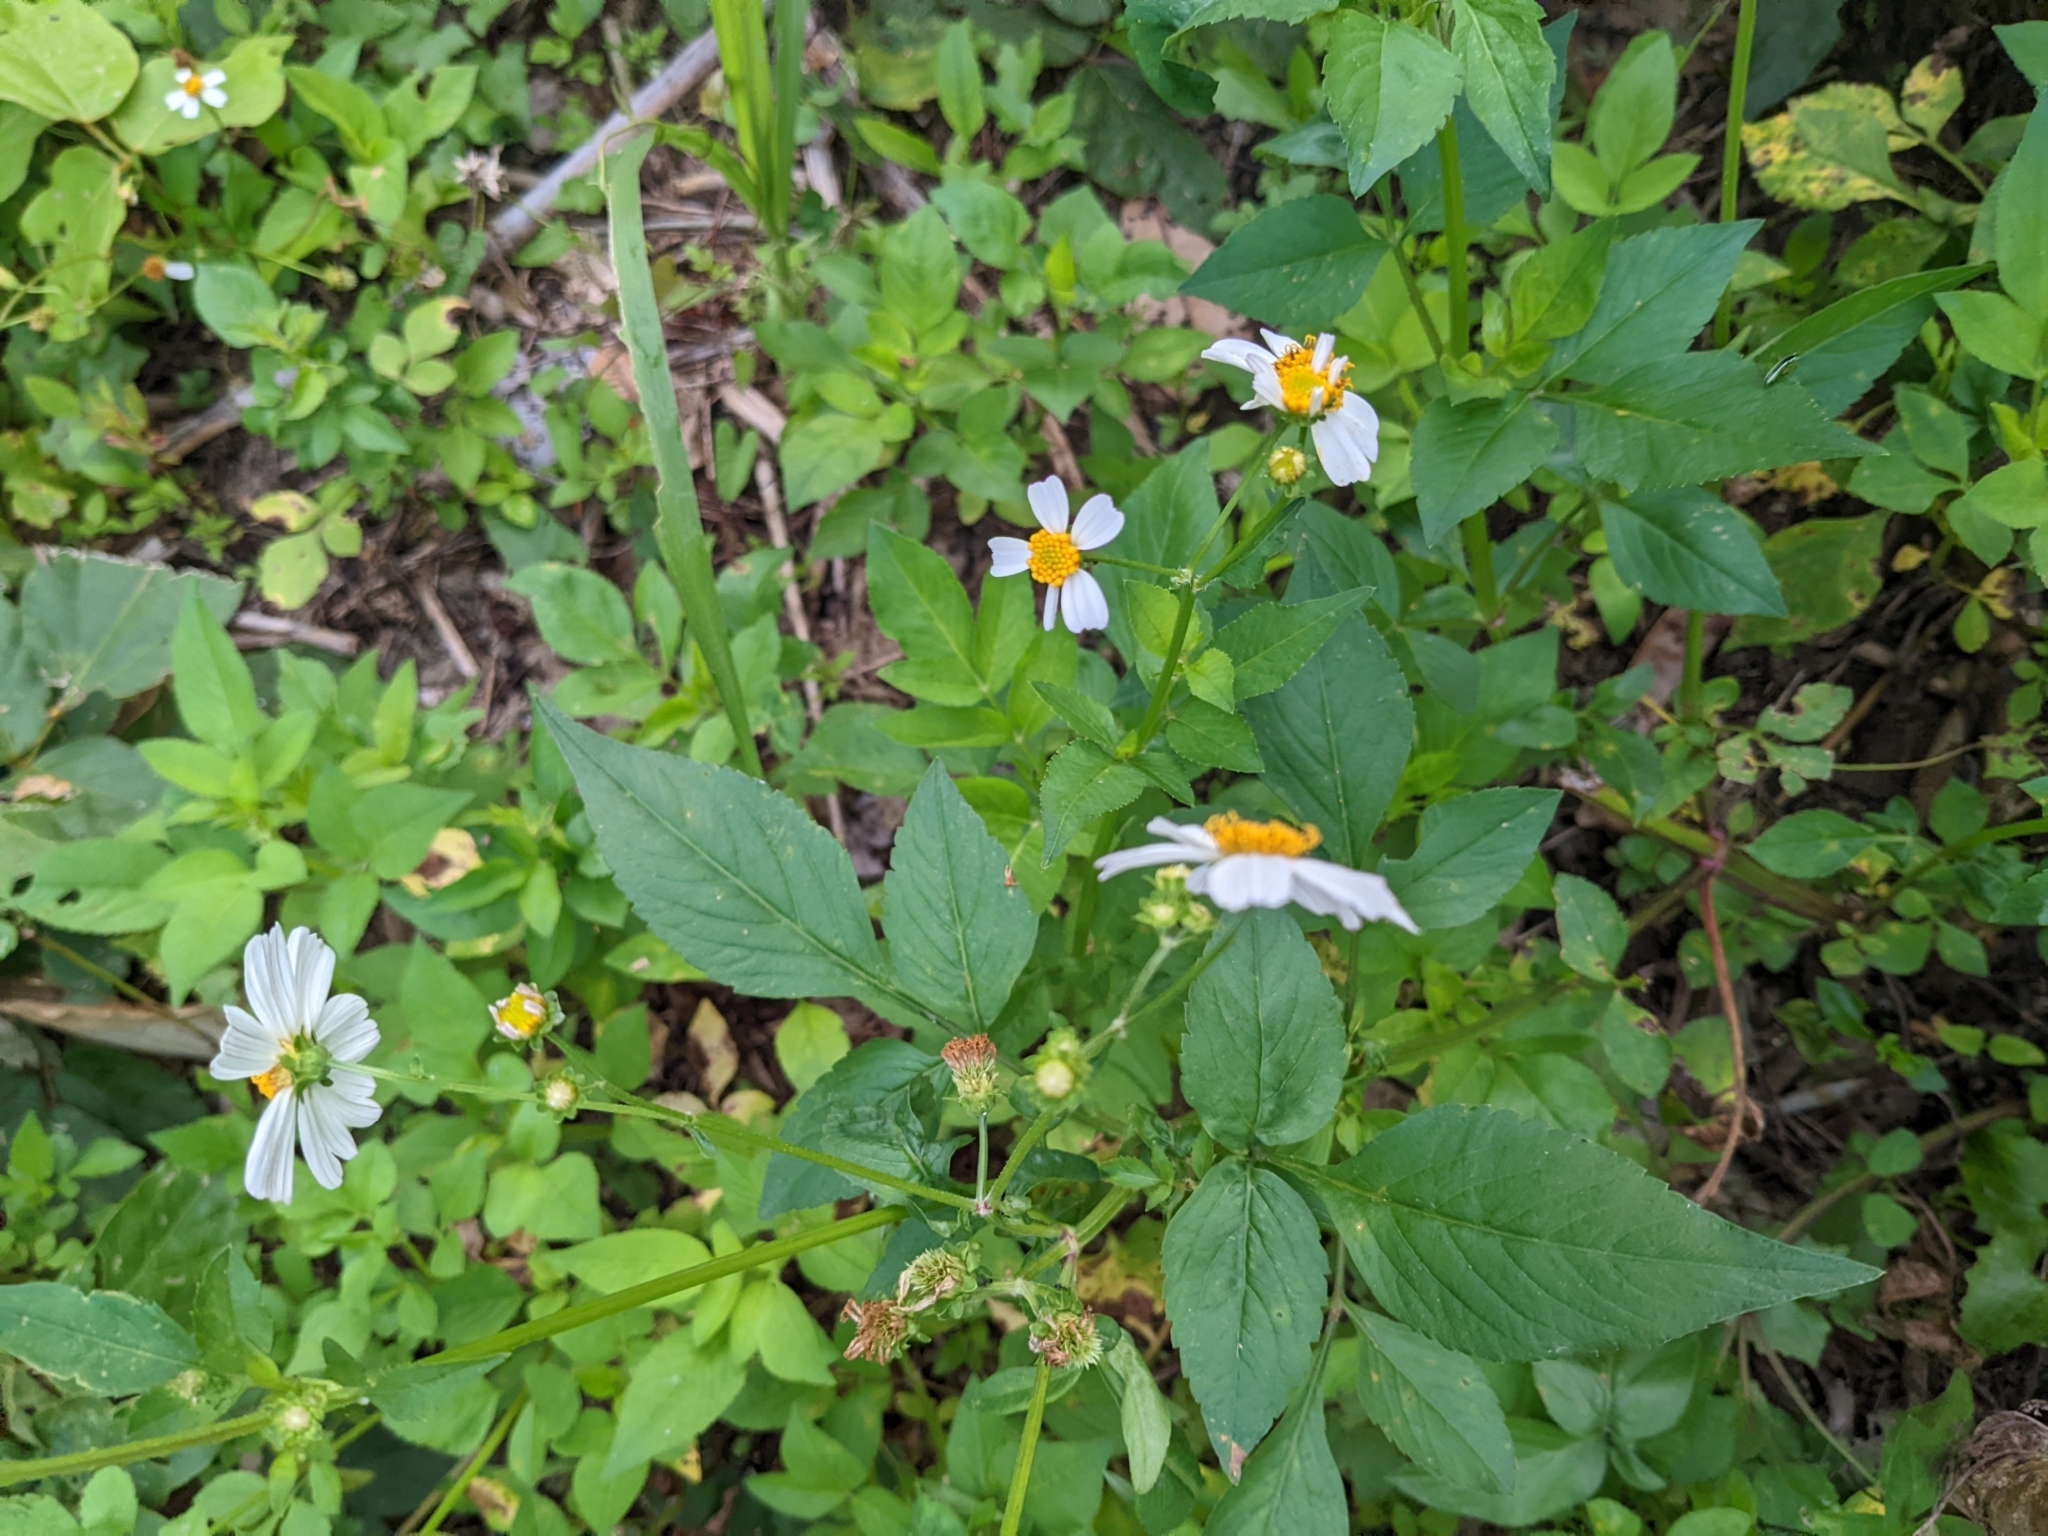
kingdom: Plantae
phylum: Tracheophyta
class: Magnoliopsida
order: Asterales
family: Asteraceae
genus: Bidens
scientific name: Bidens alba
